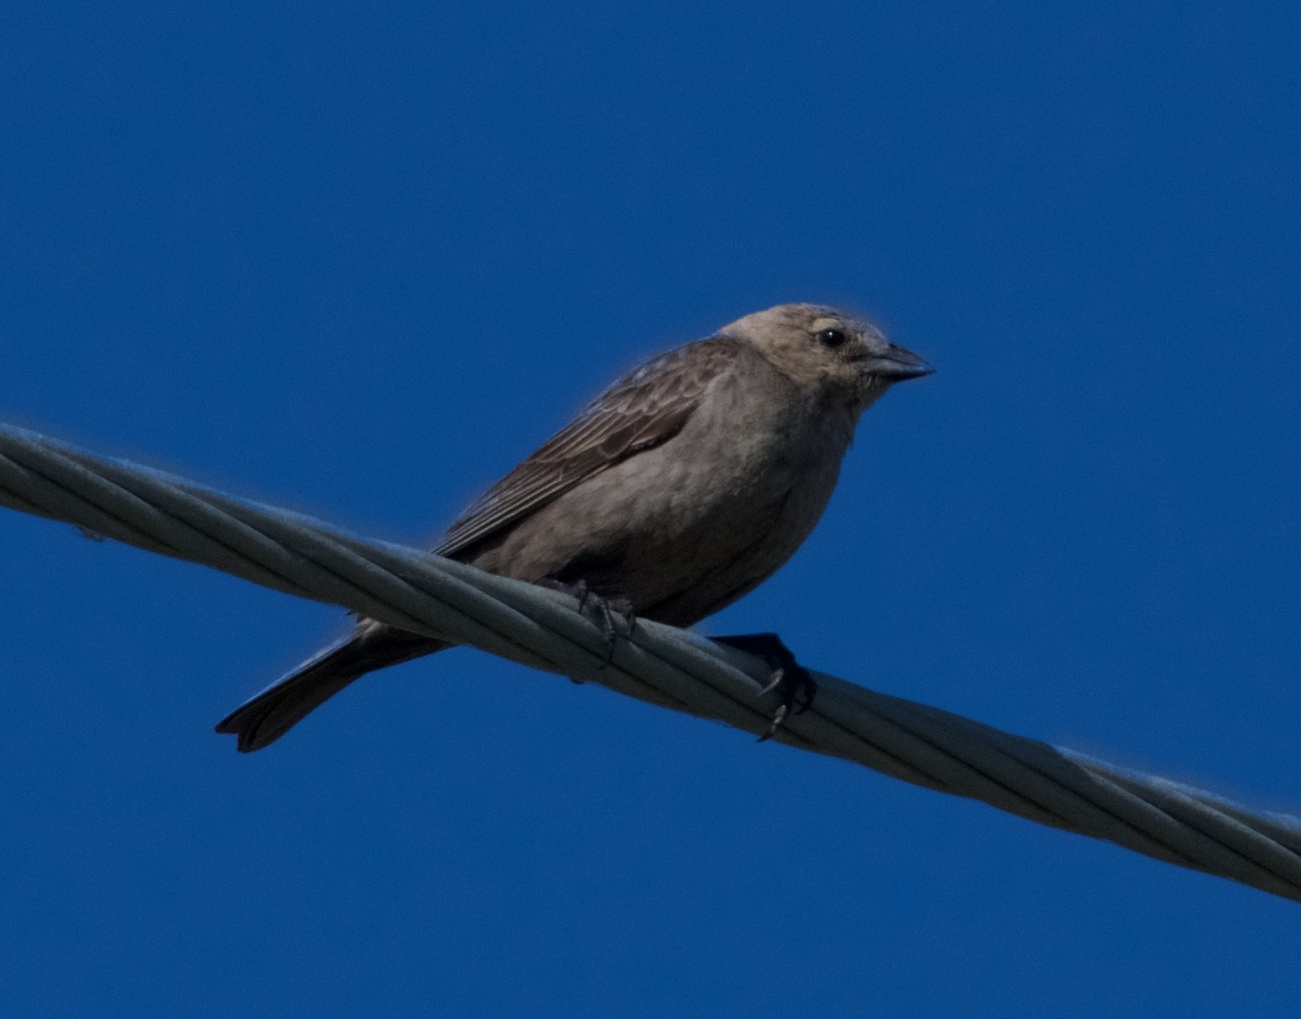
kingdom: Animalia
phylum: Chordata
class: Aves
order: Passeriformes
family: Icteridae
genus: Molothrus
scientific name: Molothrus ater
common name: Brown-headed cowbird
